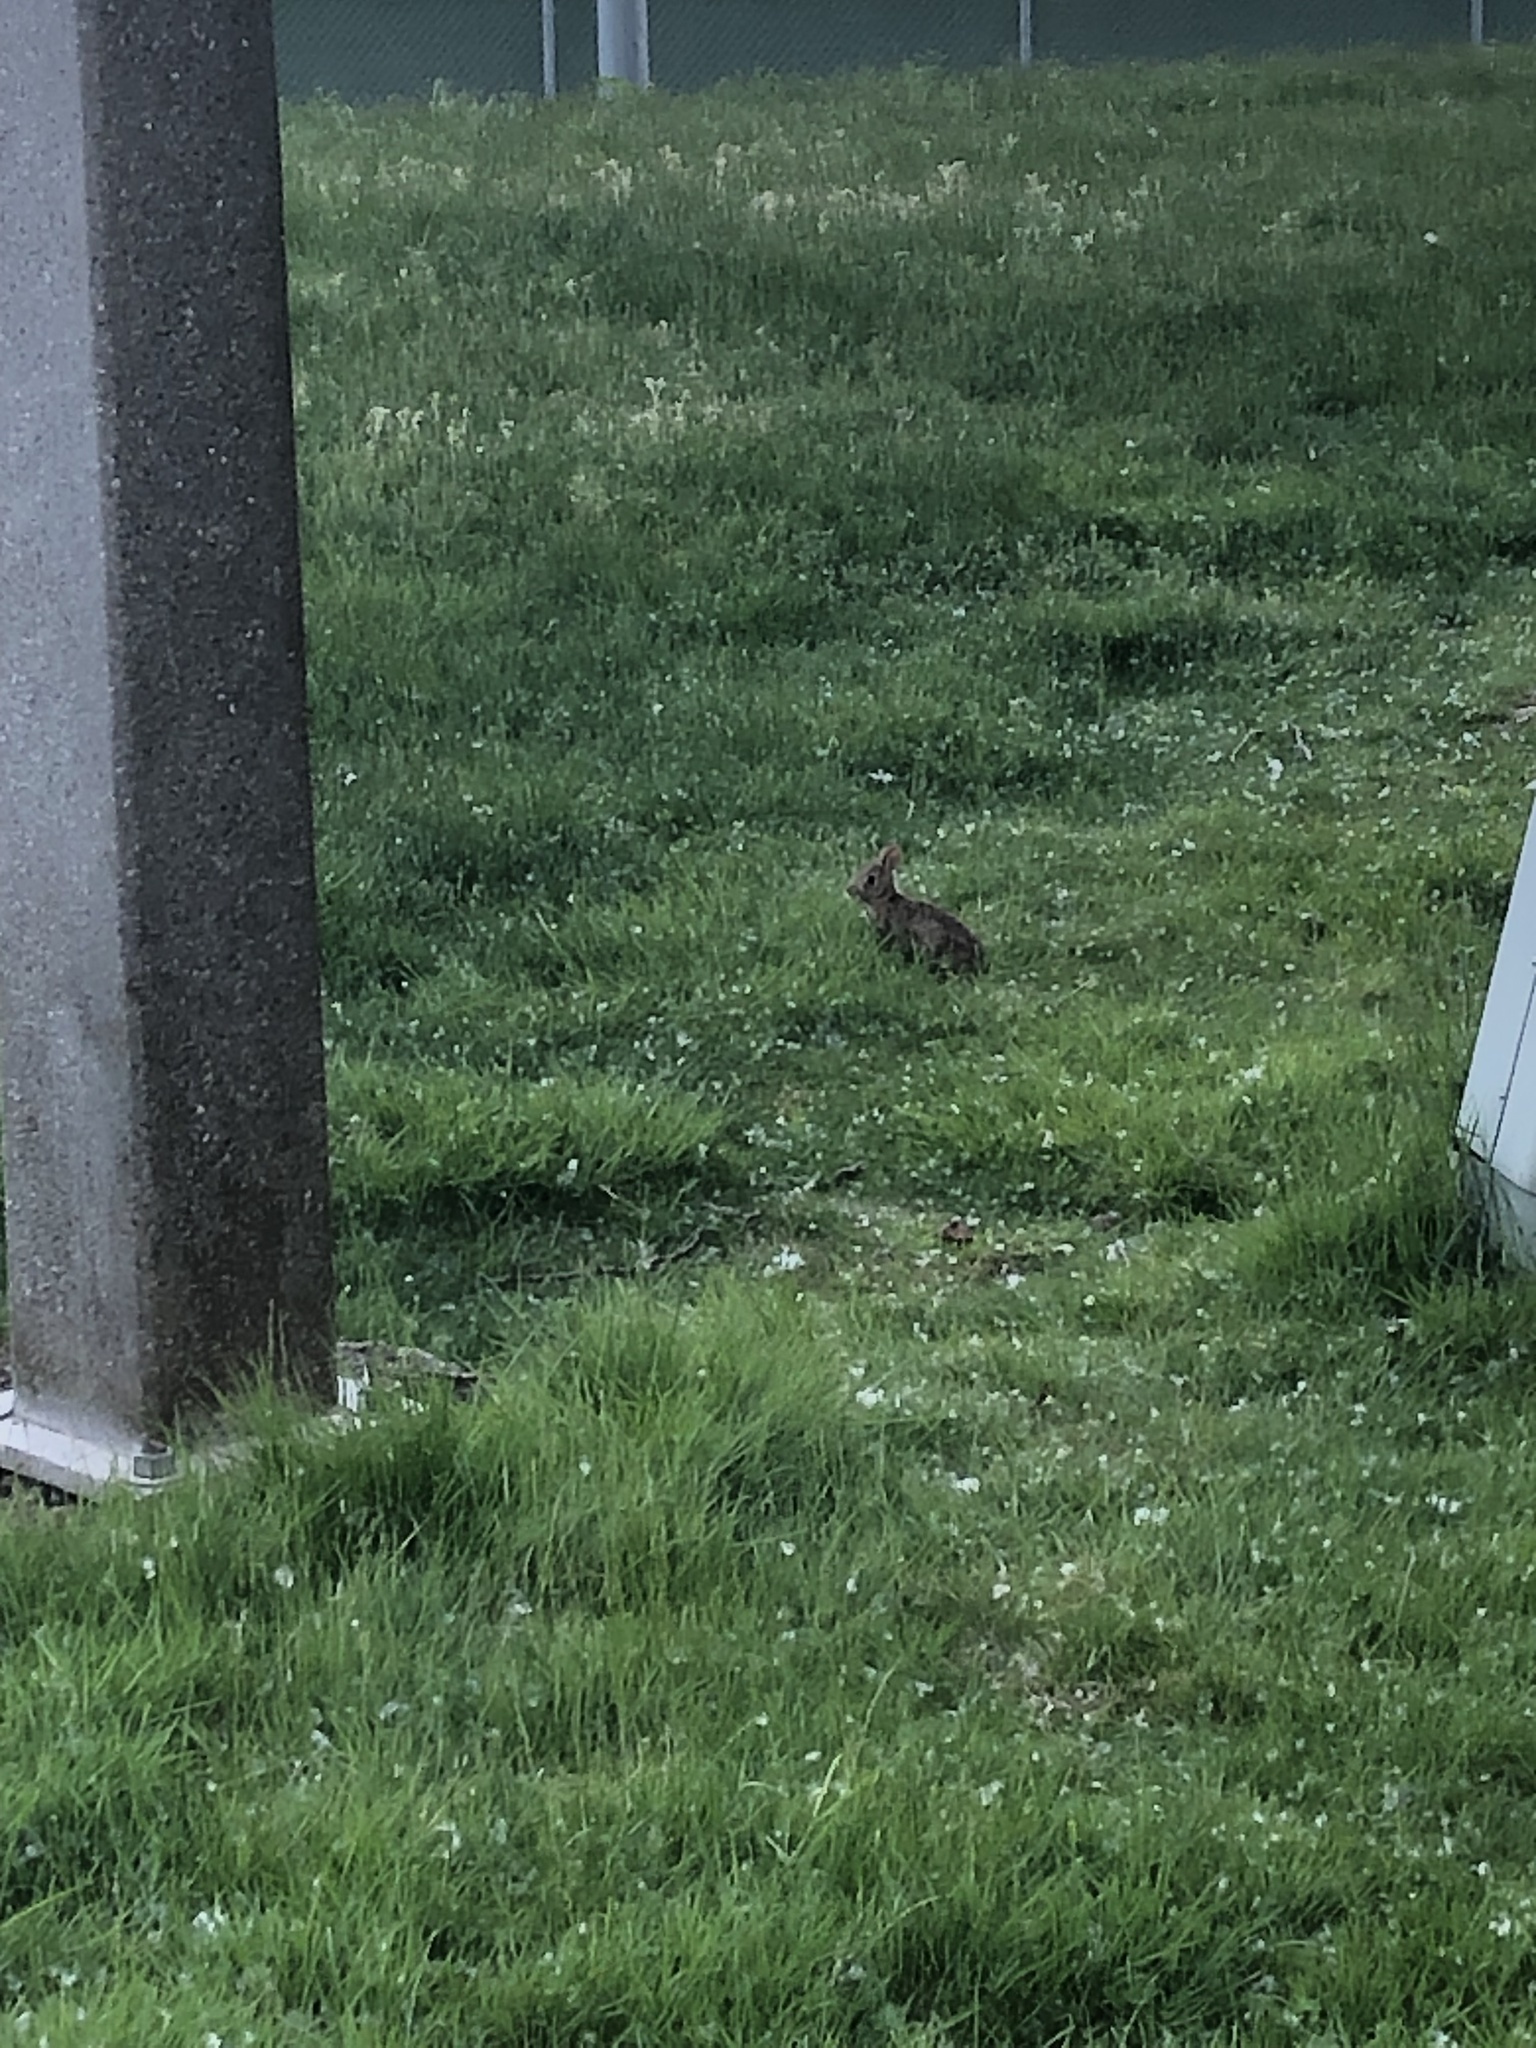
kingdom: Animalia
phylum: Chordata
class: Mammalia
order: Lagomorpha
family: Leporidae
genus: Sylvilagus
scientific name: Sylvilagus floridanus
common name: Eastern cottontail
